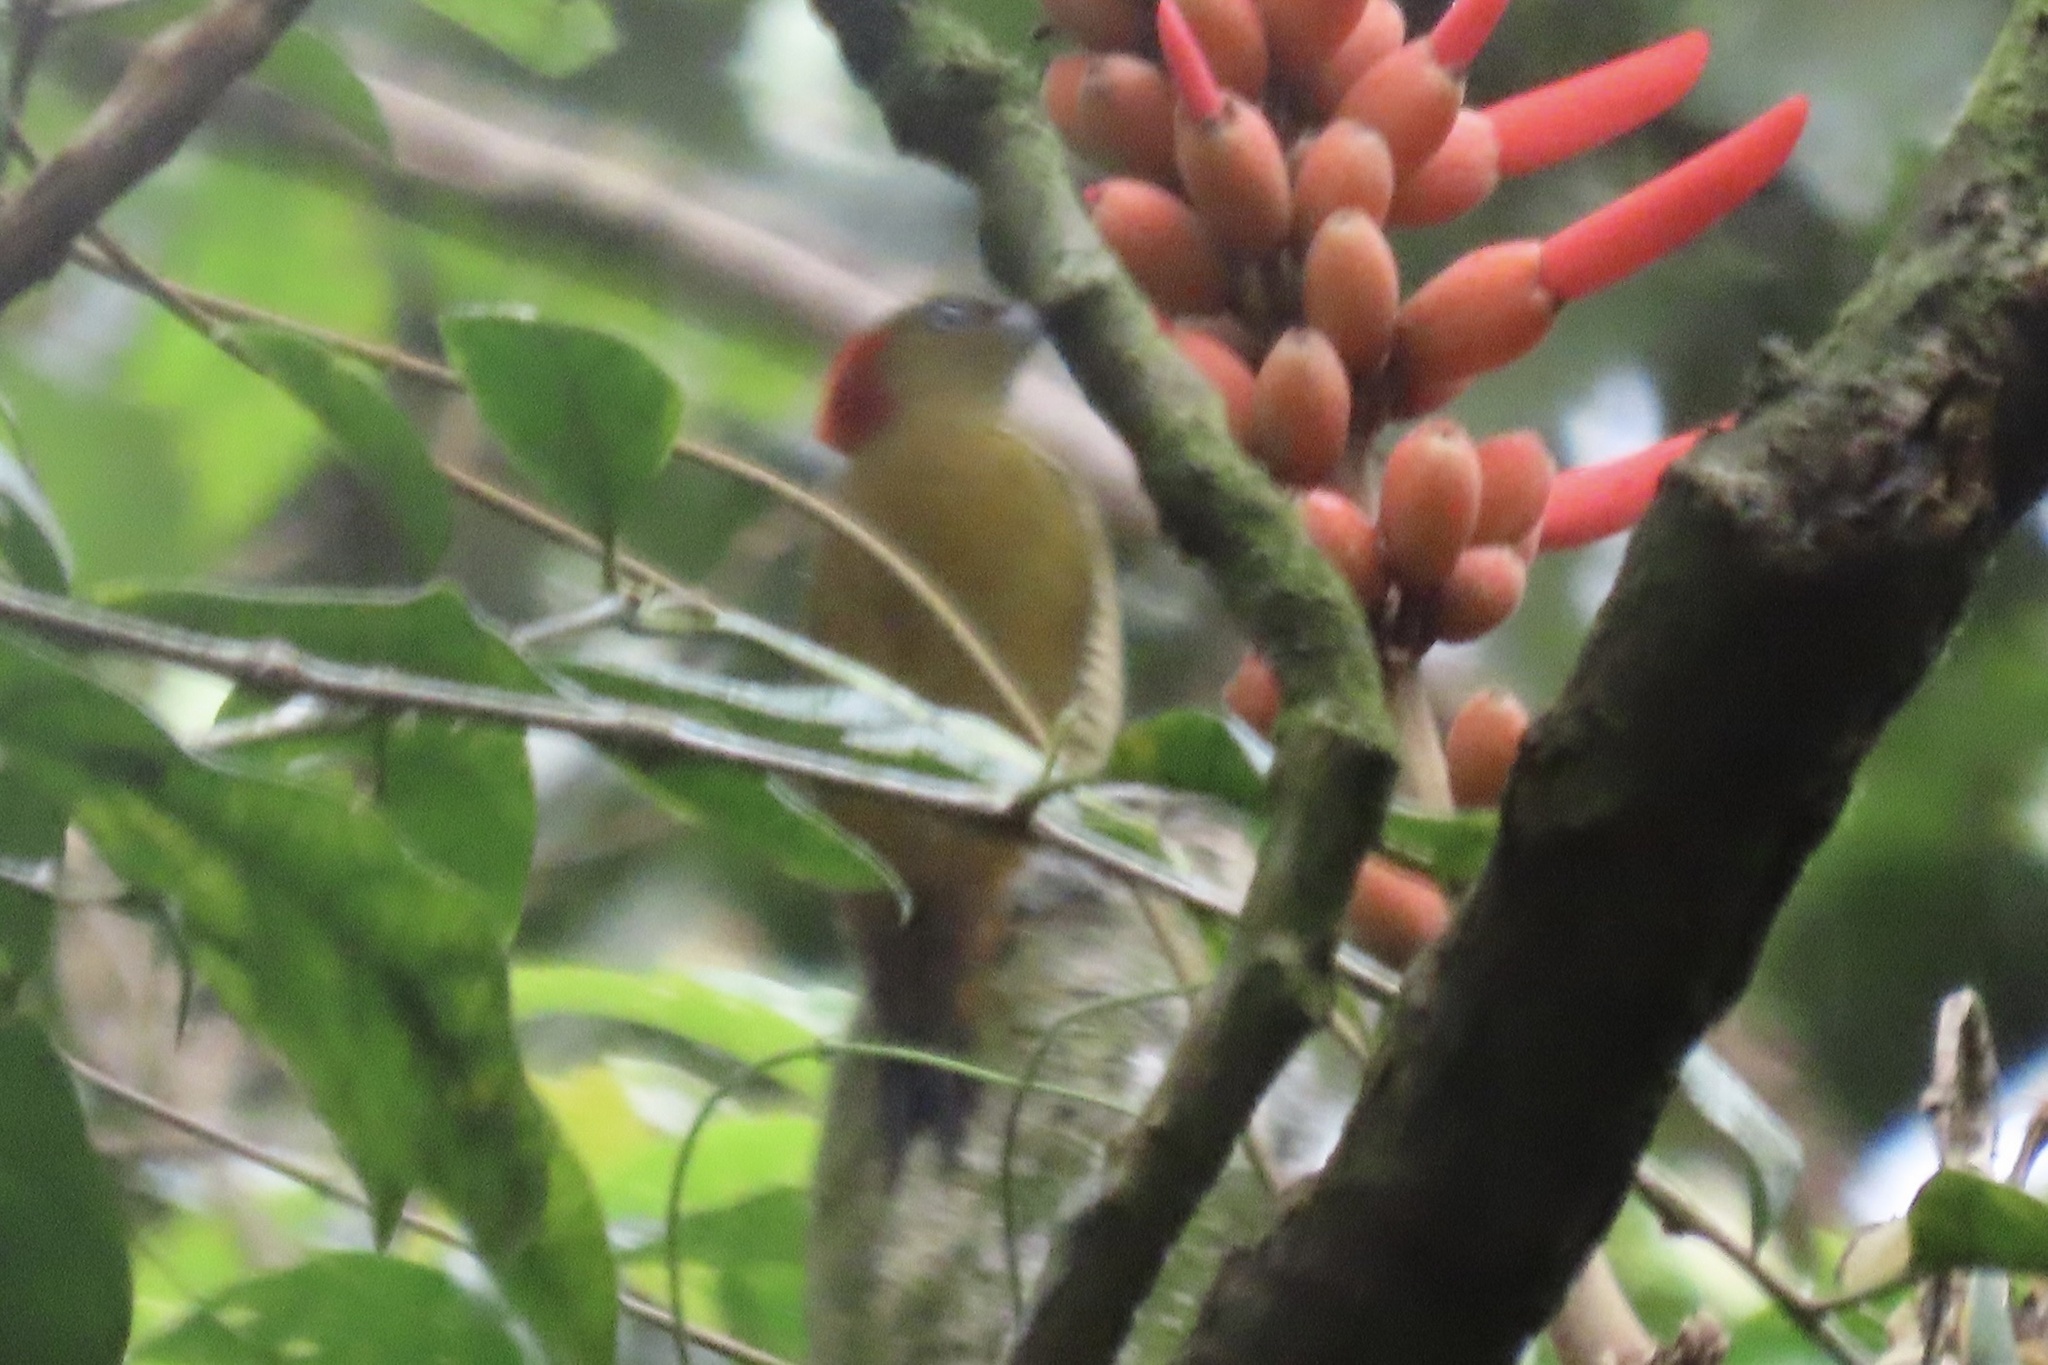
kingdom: Animalia
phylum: Chordata
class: Aves
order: Piciformes
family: Picidae
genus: Piculus
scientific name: Piculus simplex
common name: Rufous-winged woodpecker
